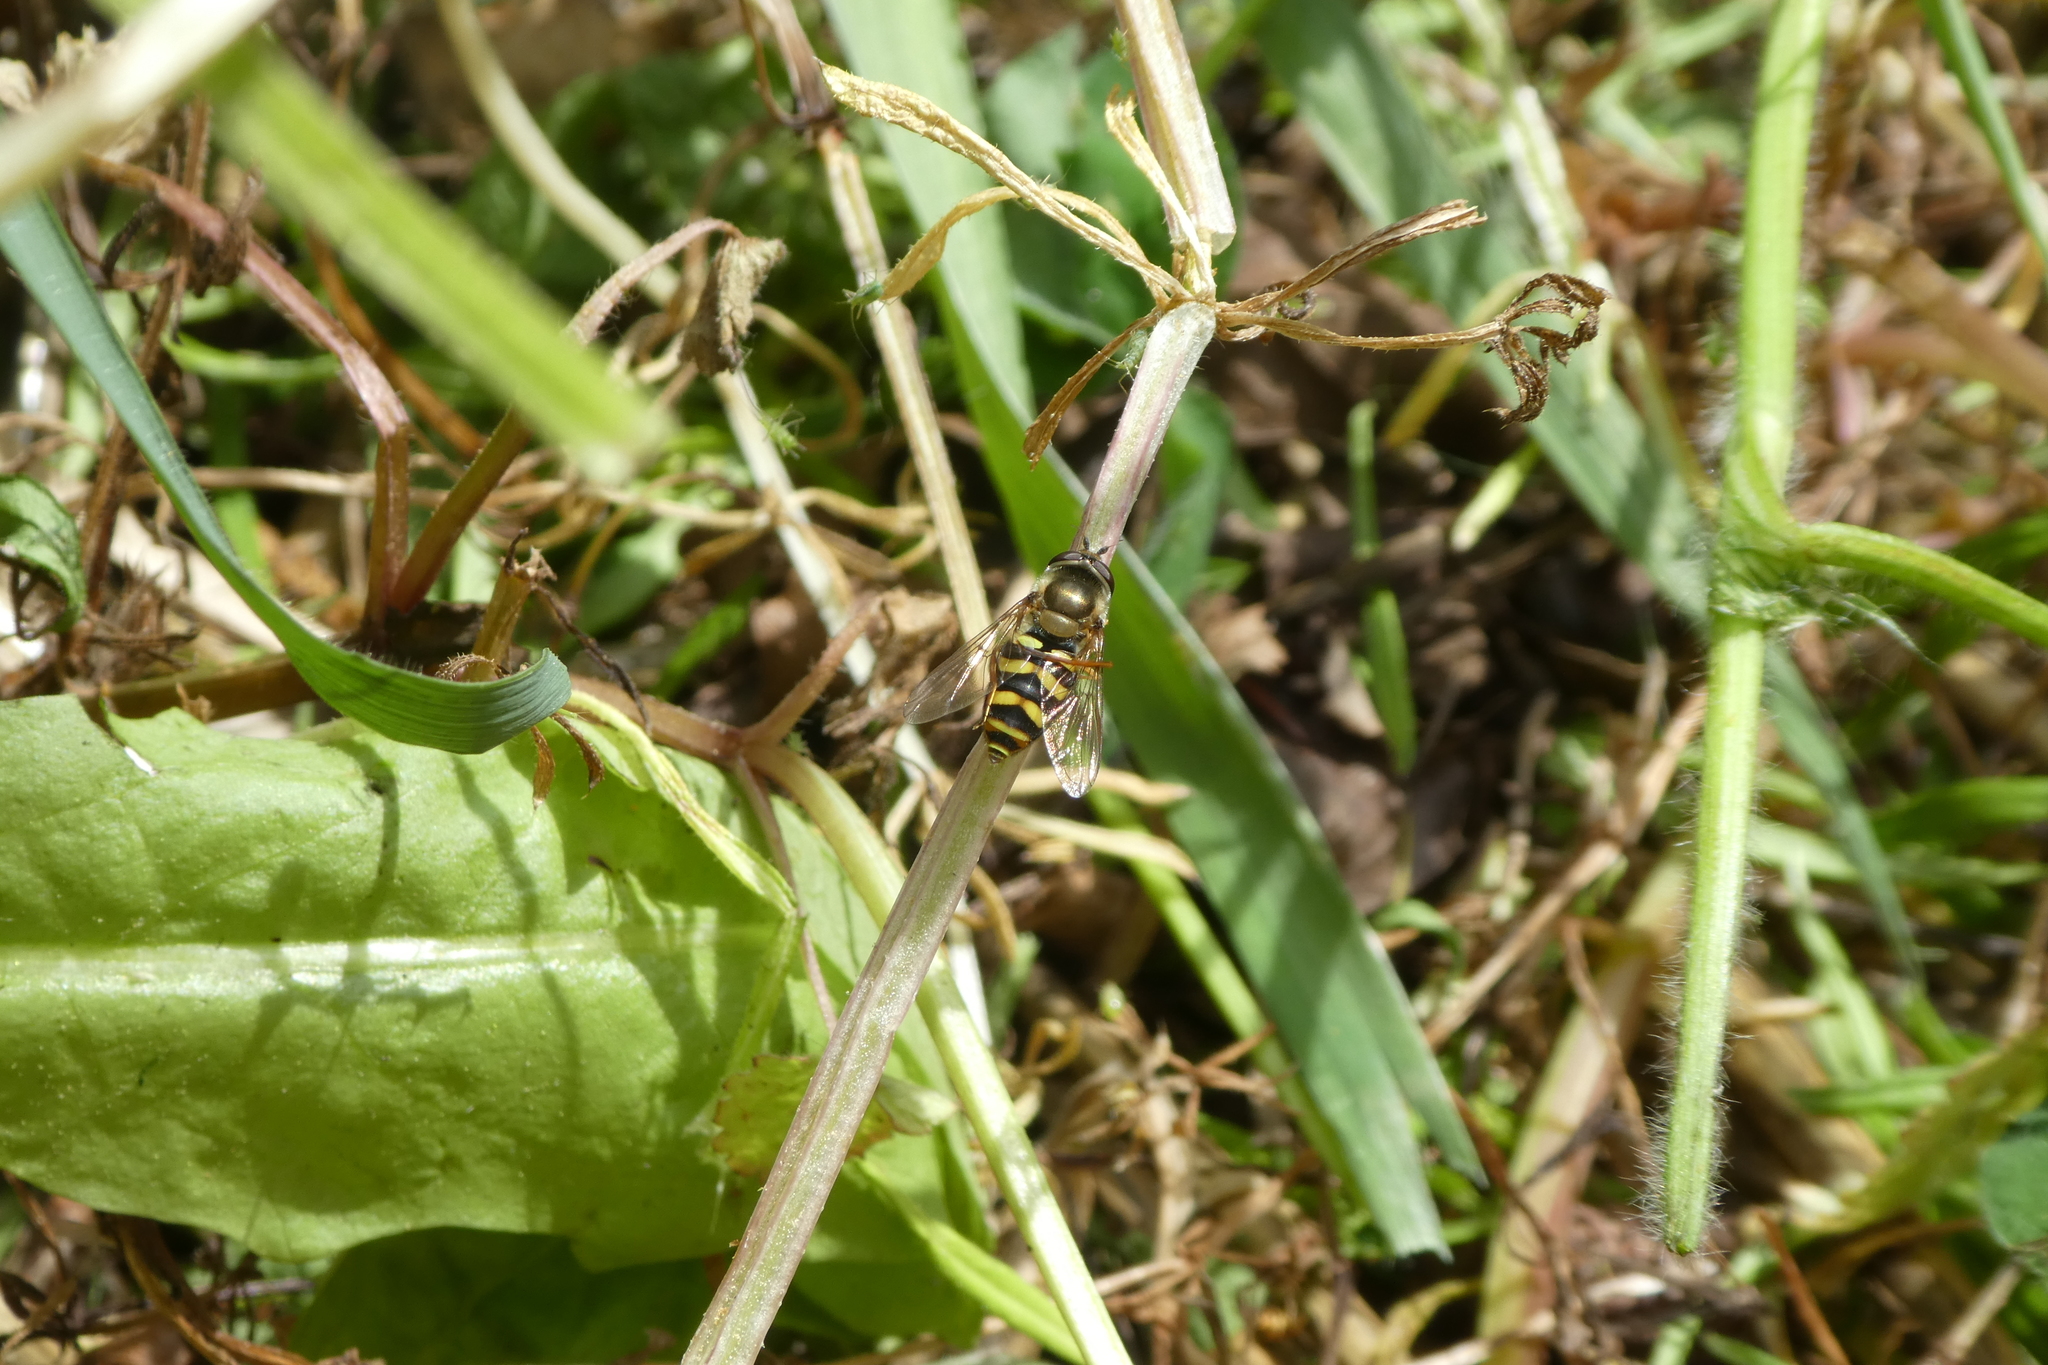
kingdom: Animalia
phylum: Arthropoda
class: Insecta
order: Diptera
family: Syrphidae
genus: Eupeodes
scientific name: Eupeodes fumipennis
